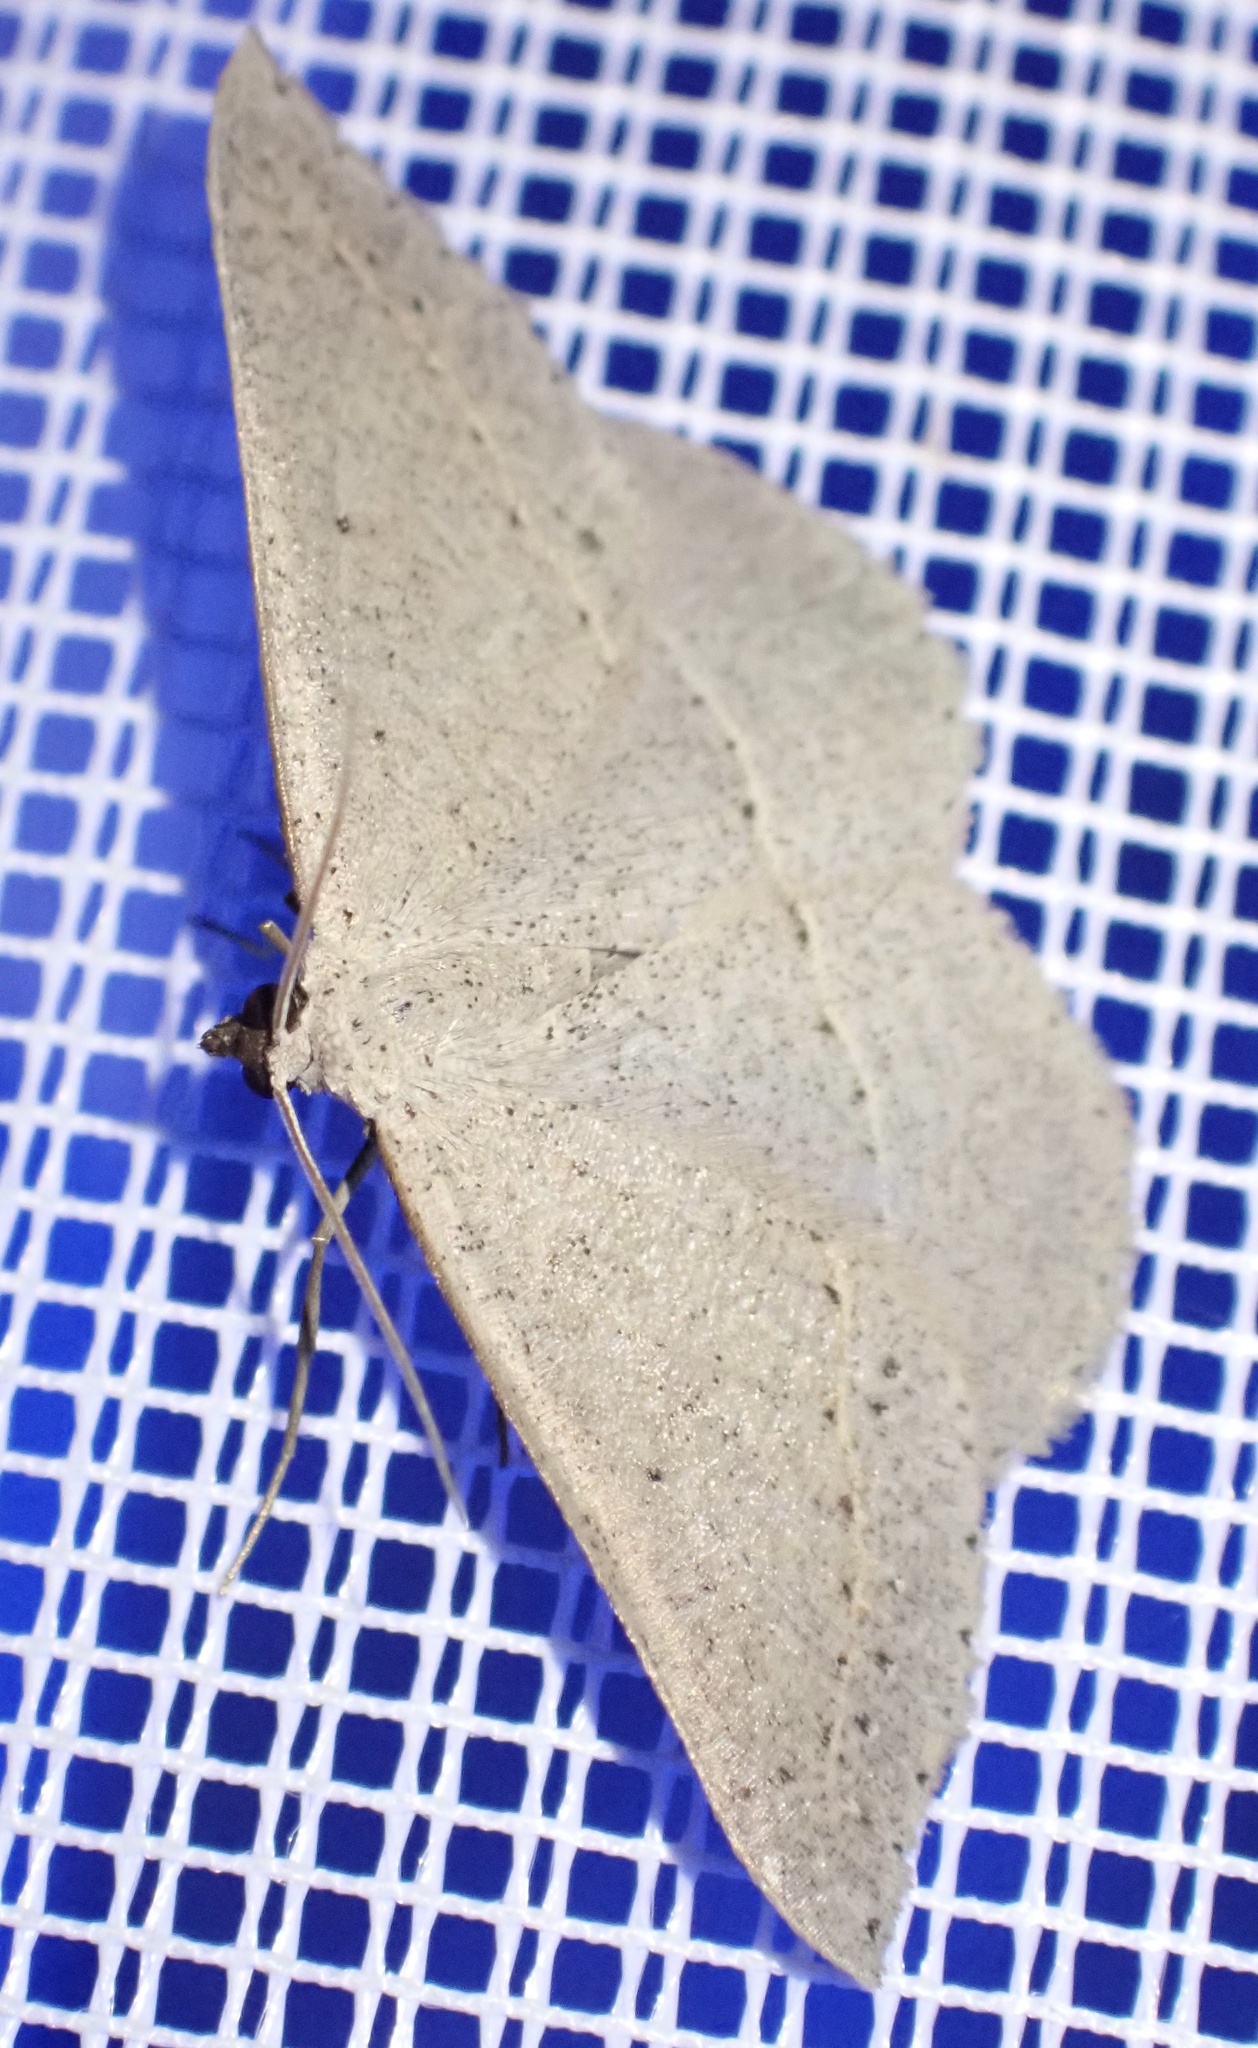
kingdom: Animalia
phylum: Arthropoda
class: Insecta
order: Lepidoptera
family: Geometridae
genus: Taxeotis
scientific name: Taxeotis egenata
